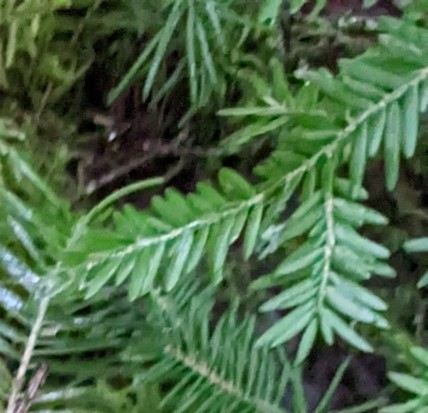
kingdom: Plantae
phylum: Tracheophyta
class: Pinopsida
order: Pinales
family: Pinaceae
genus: Tsuga
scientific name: Tsuga canadensis
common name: Eastern hemlock
